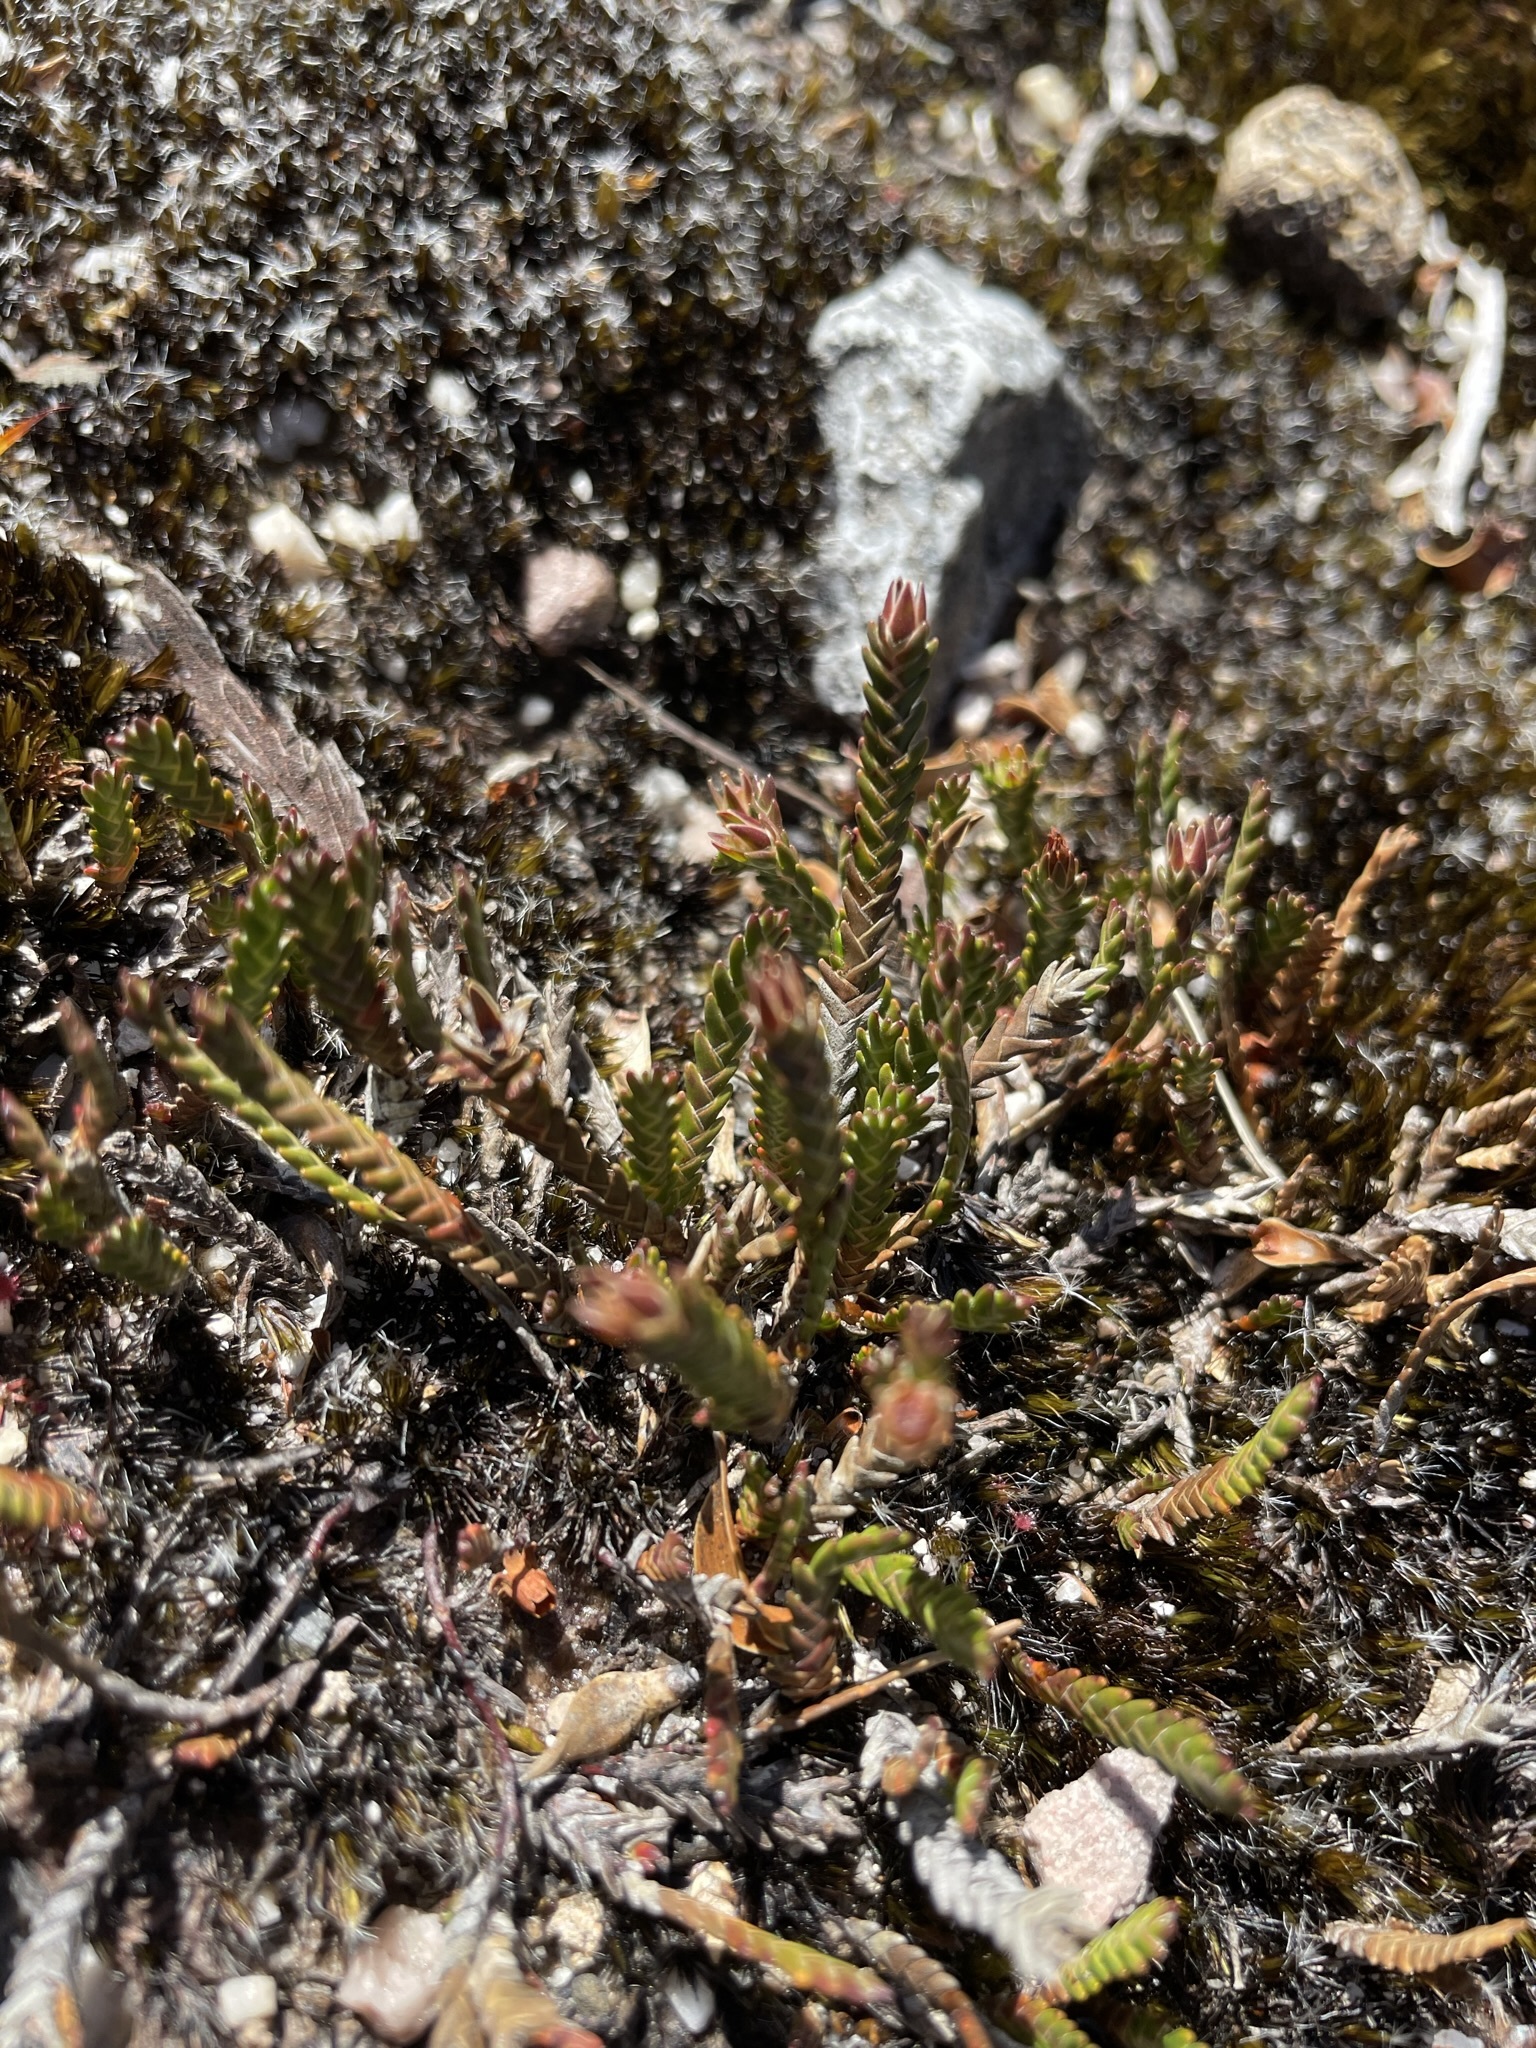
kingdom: Plantae
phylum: Tracheophyta
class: Magnoliopsida
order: Ericales
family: Ericaceae
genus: Sprengelia
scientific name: Sprengelia distichophylla
